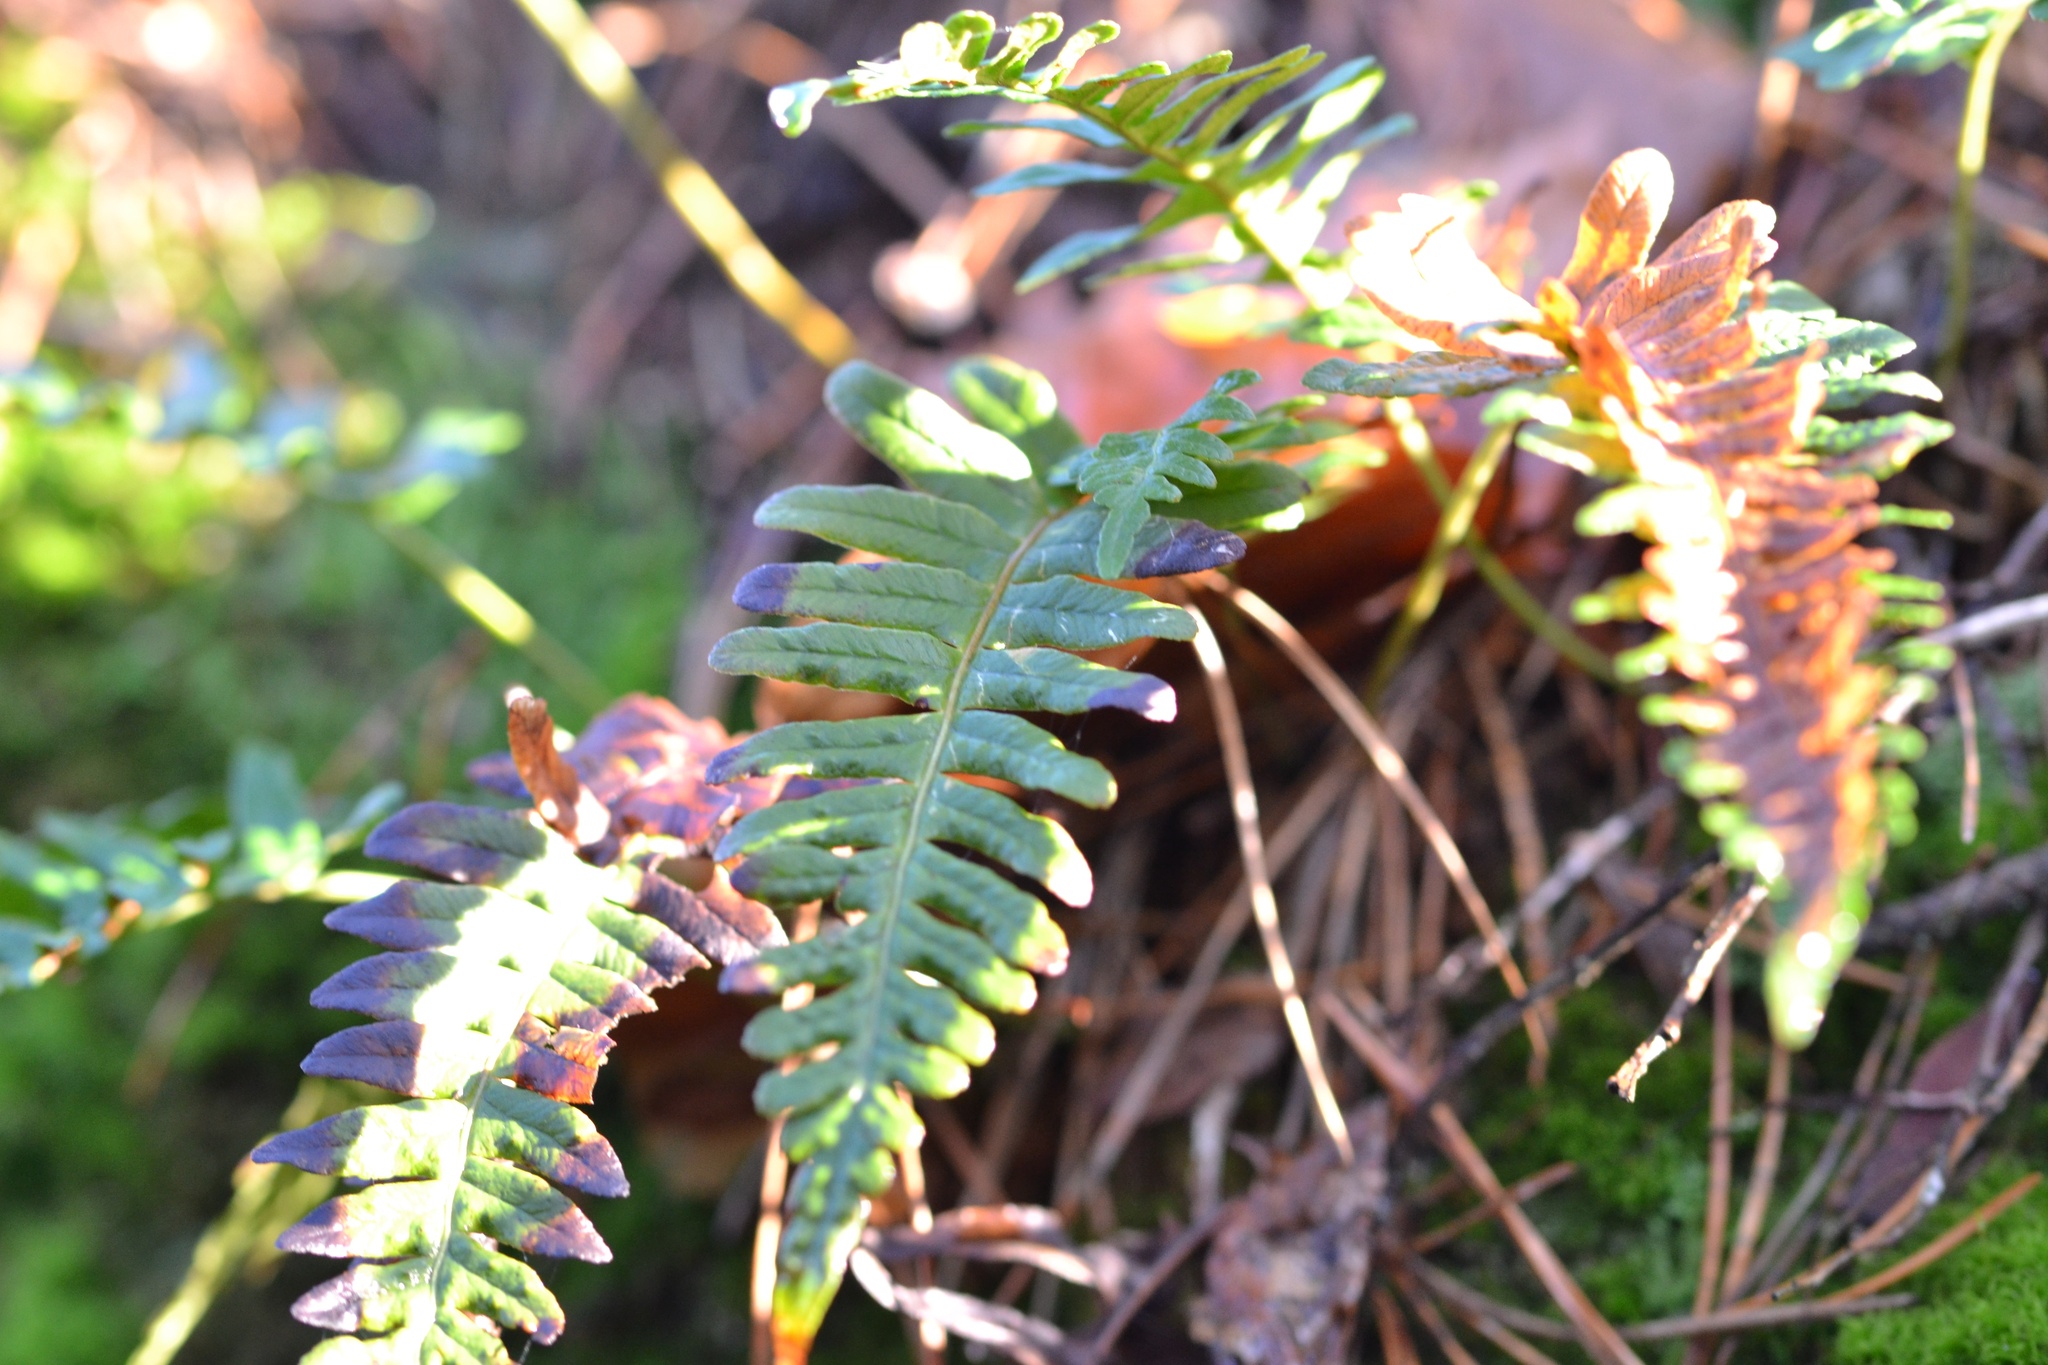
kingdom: Plantae
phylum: Tracheophyta
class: Polypodiopsida
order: Polypodiales
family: Polypodiaceae
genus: Polypodium
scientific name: Polypodium vulgare
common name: Common polypody
